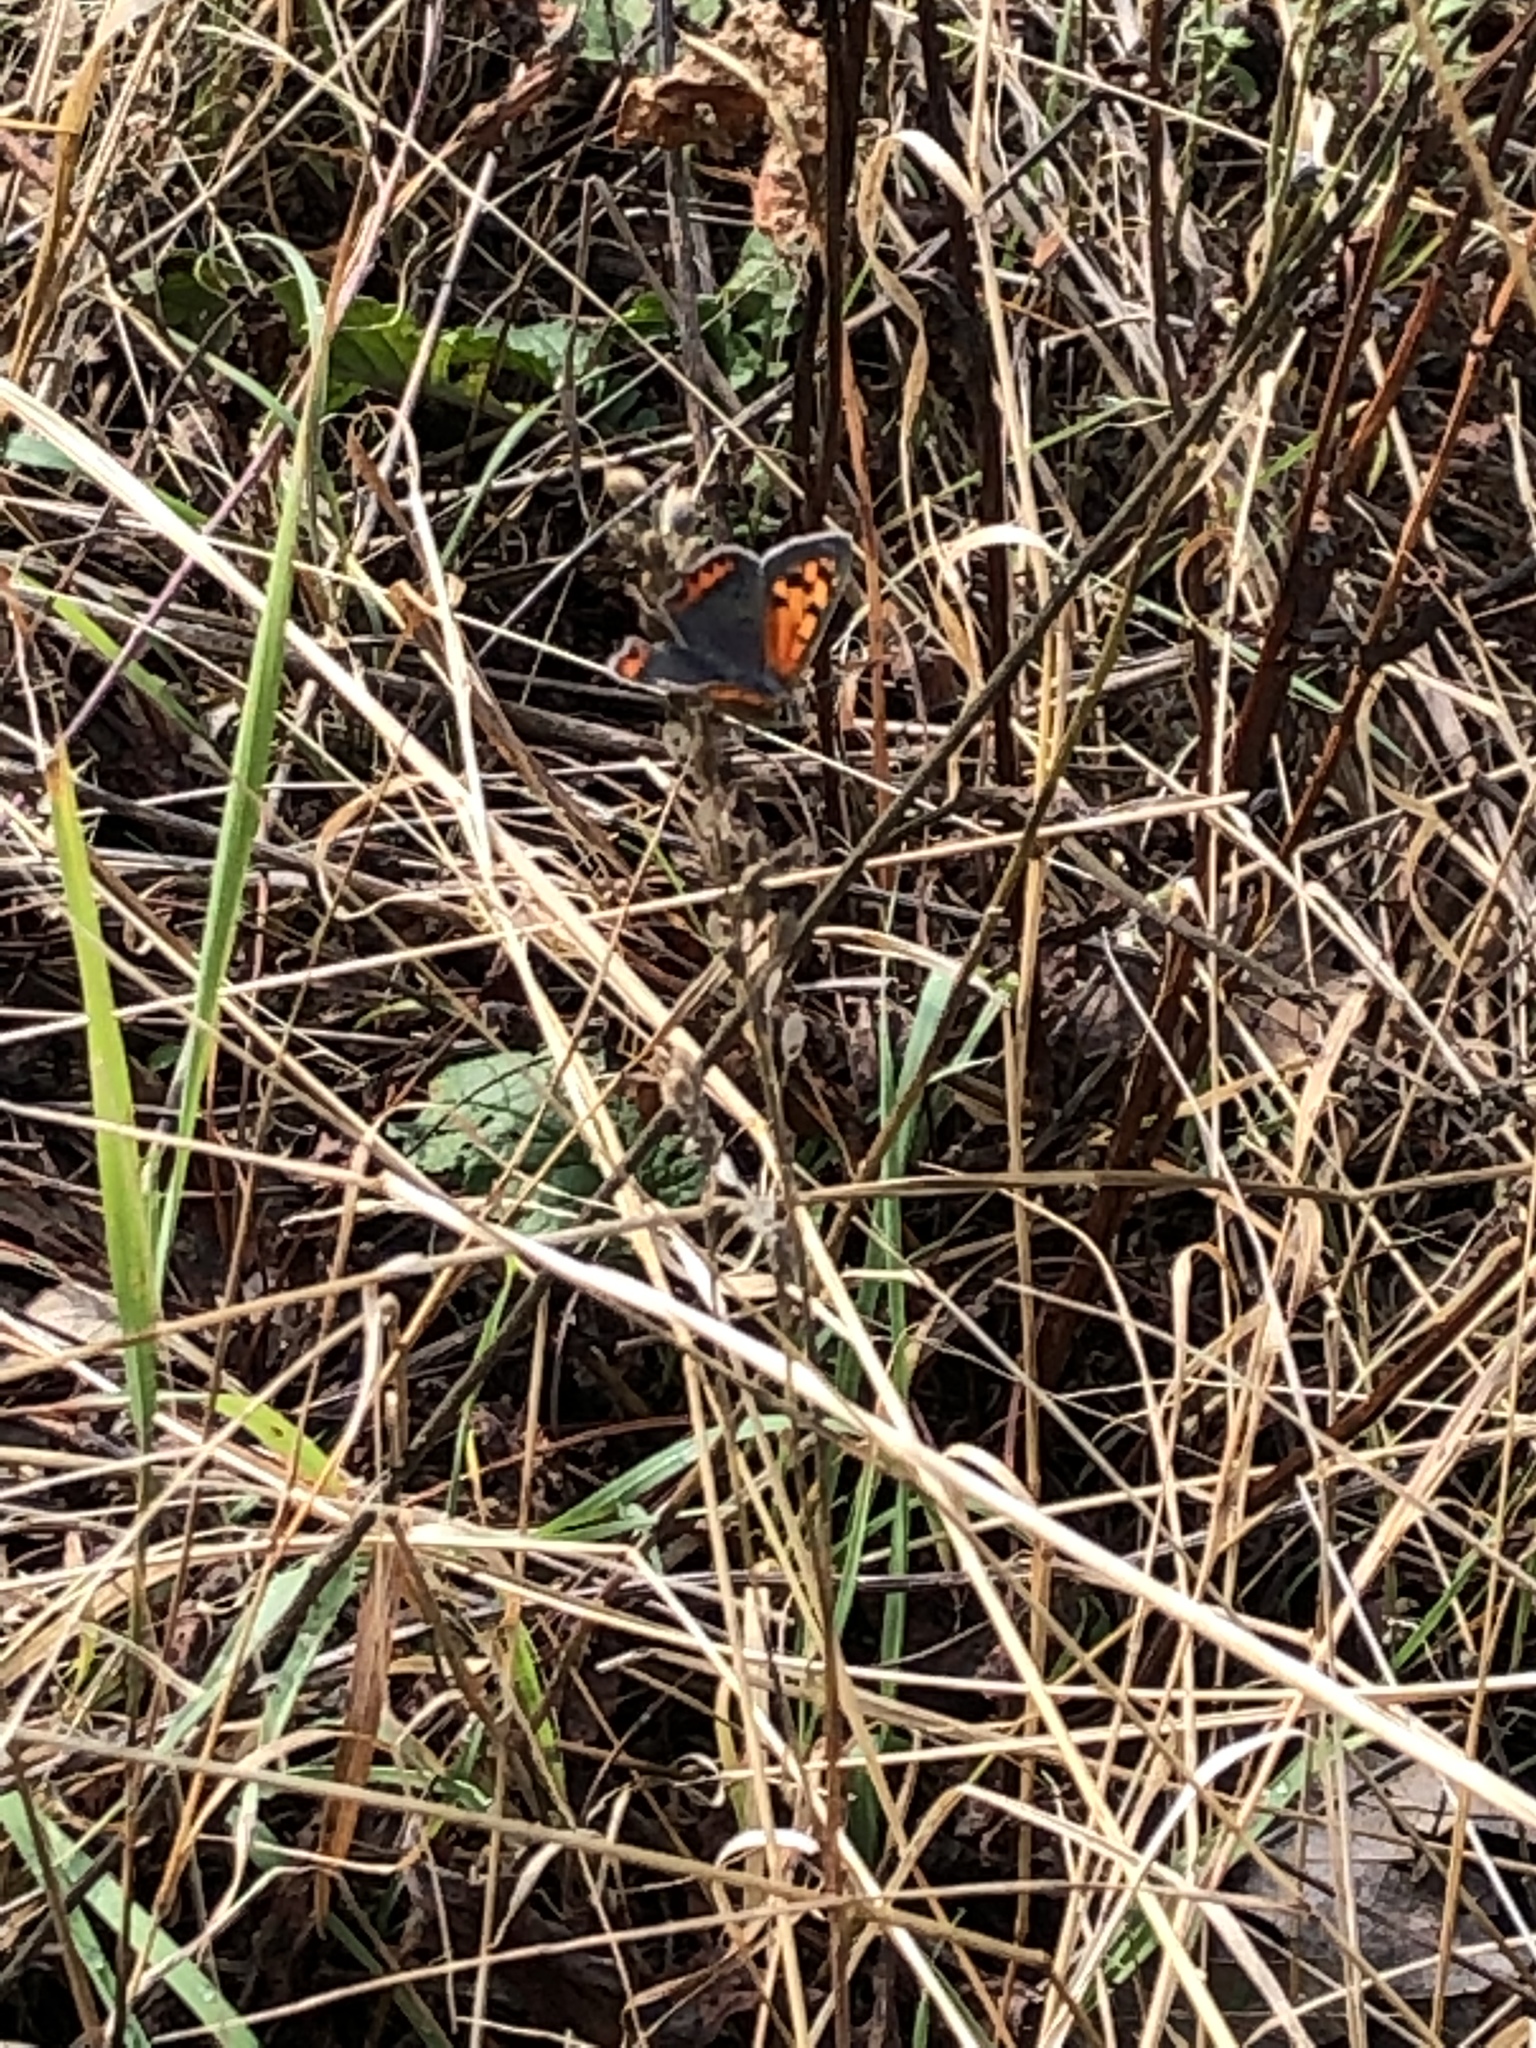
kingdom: Animalia
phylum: Arthropoda
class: Insecta
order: Lepidoptera
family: Lycaenidae
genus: Lycaena
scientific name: Lycaena phlaeas
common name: Small copper
